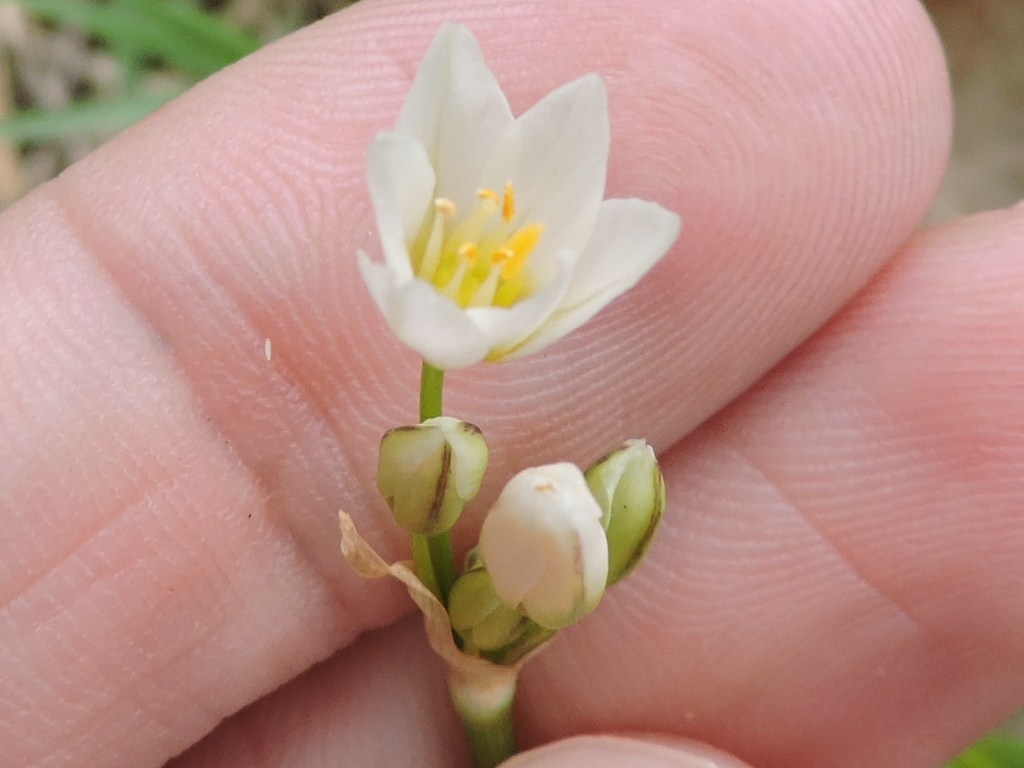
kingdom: Plantae
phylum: Tracheophyta
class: Liliopsida
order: Asparagales
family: Amaryllidaceae
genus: Nothoscordum
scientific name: Nothoscordum bivalve
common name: Crow-poison
